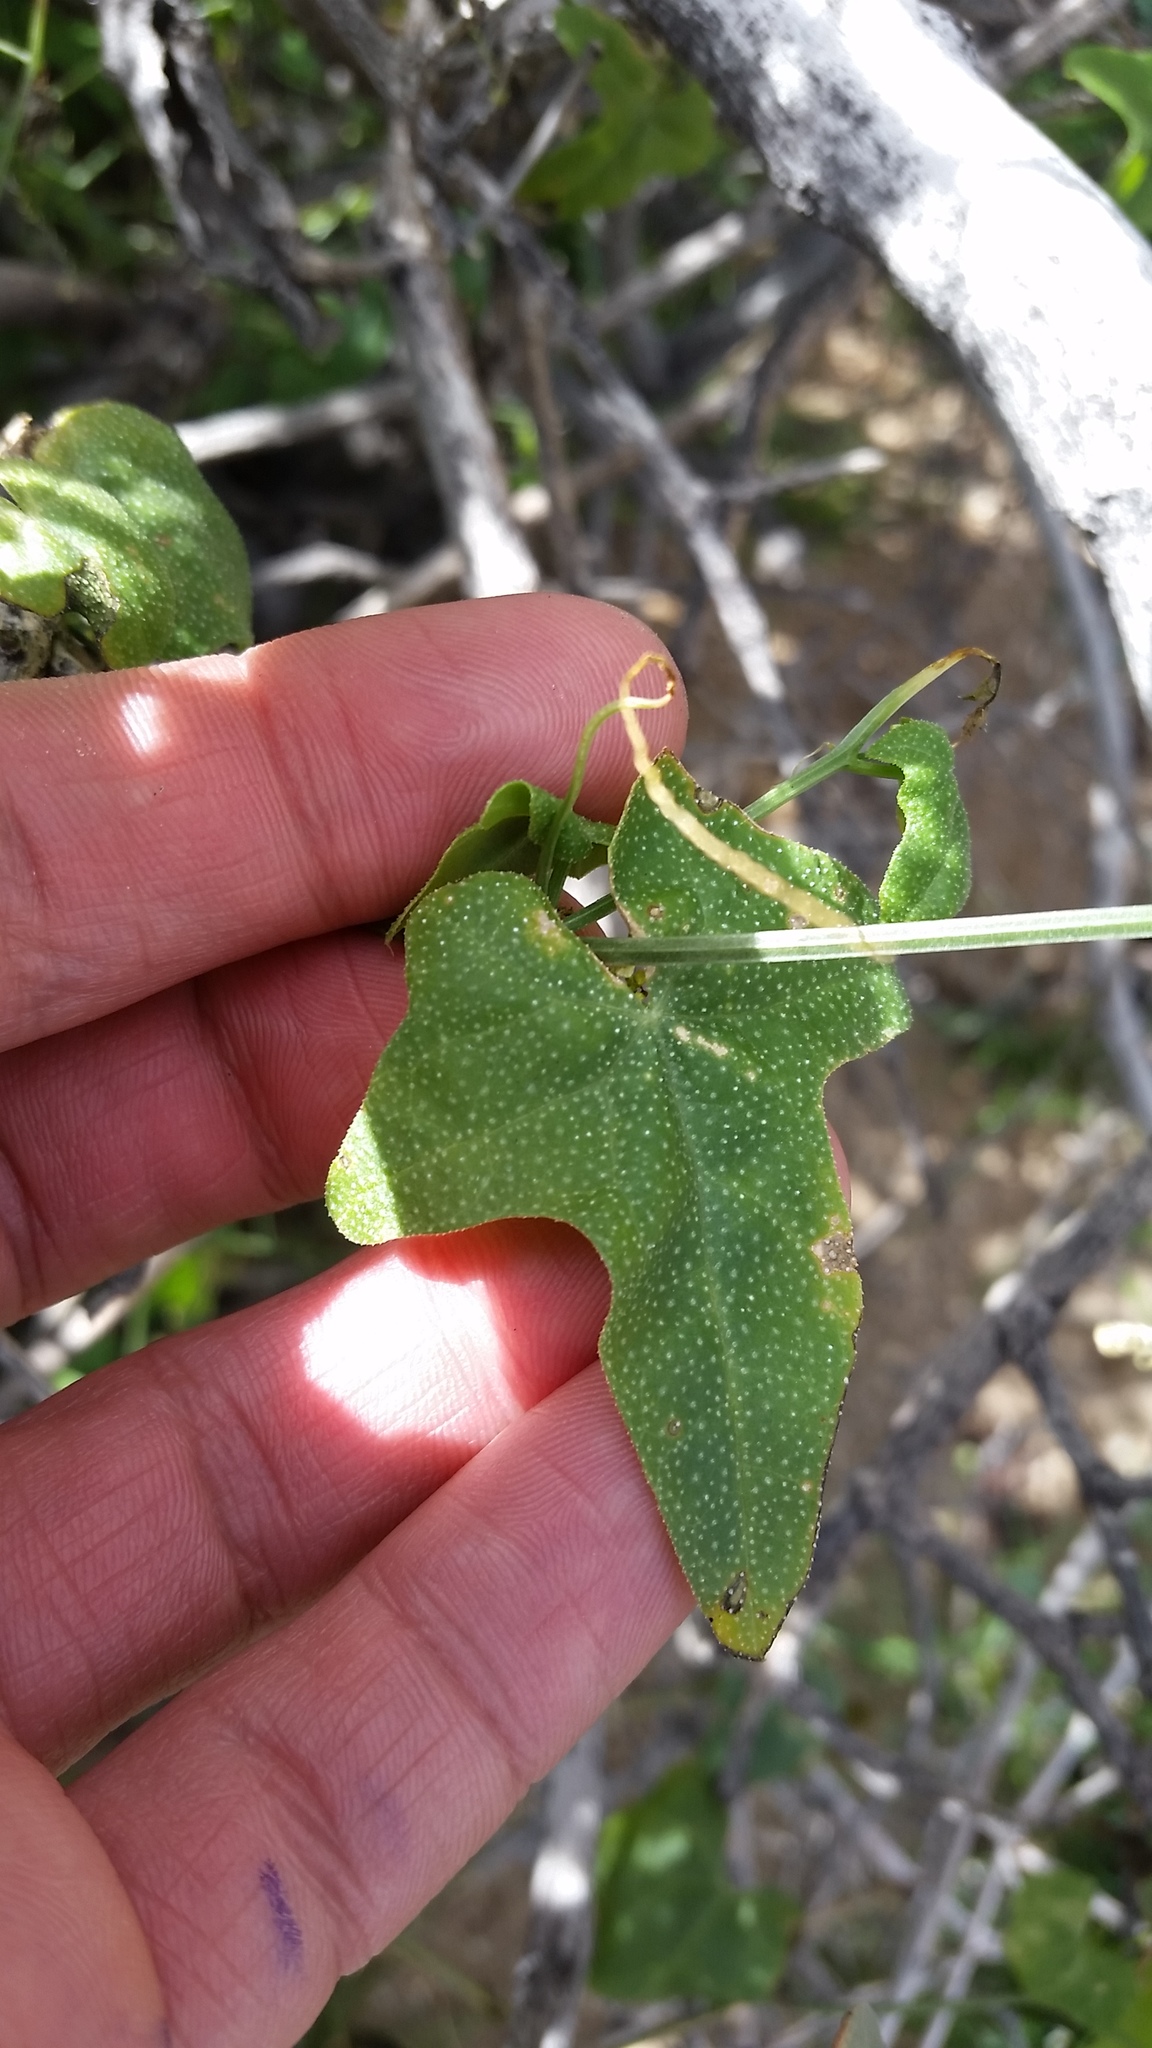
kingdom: Plantae
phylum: Tracheophyta
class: Magnoliopsida
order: Cucurbitales
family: Cucurbitaceae
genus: Echinopepon
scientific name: Echinopepon bigelovii
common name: Desert starvine
